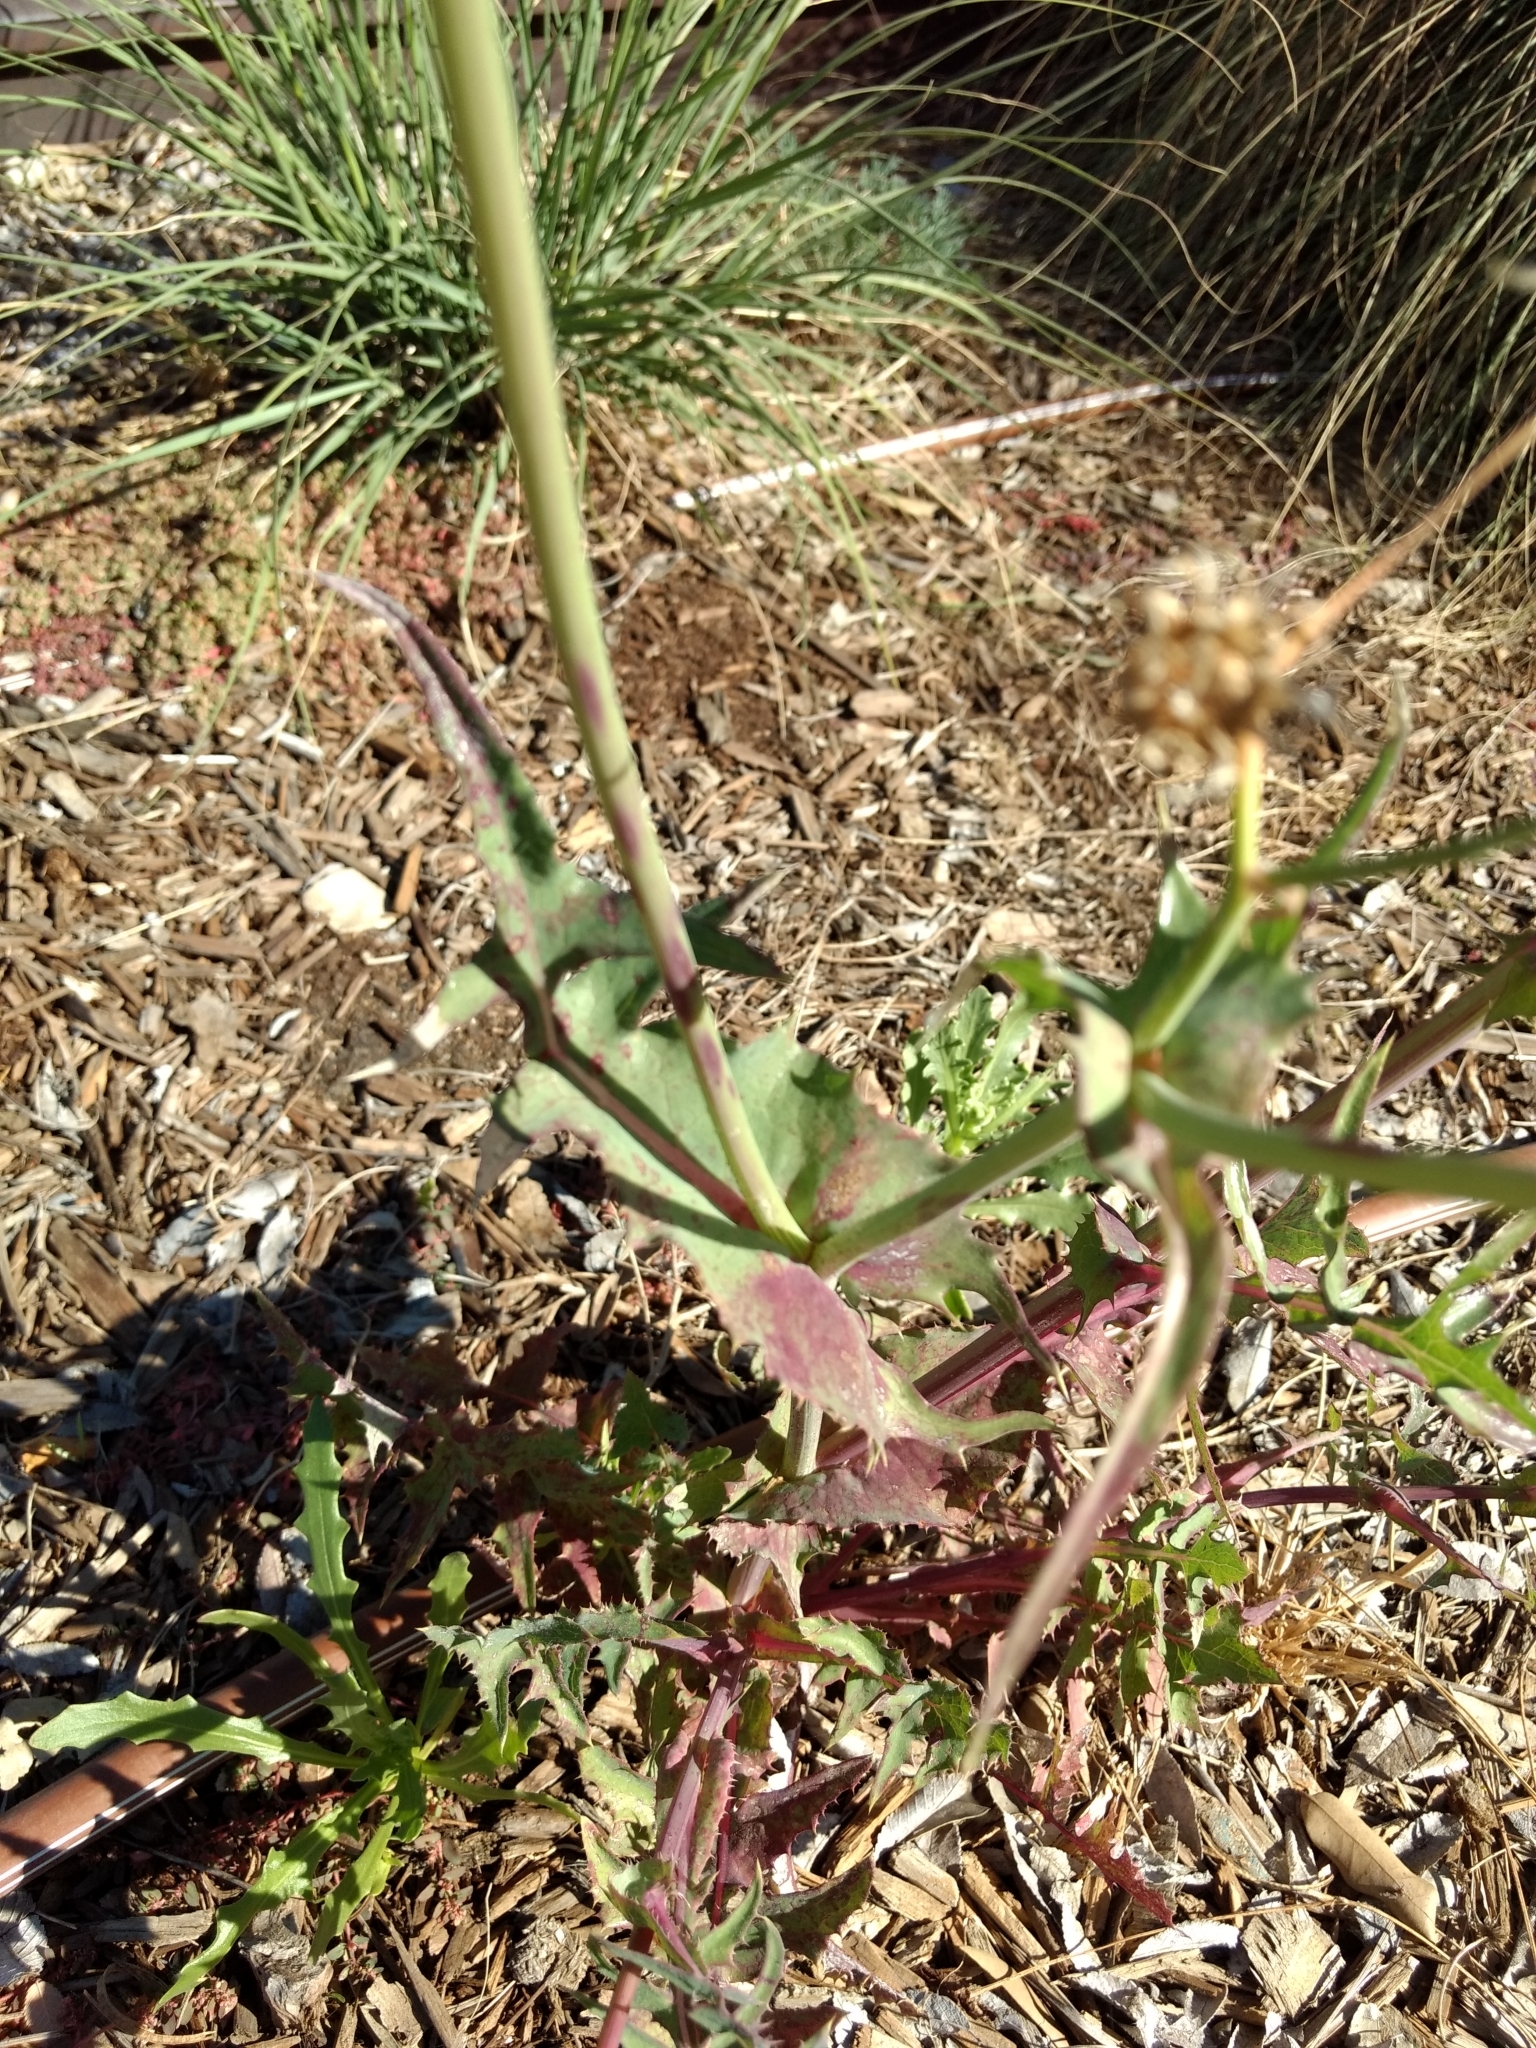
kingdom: Plantae
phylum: Tracheophyta
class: Magnoliopsida
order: Asterales
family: Asteraceae
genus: Sonchus
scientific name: Sonchus oleraceus
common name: Common sowthistle
